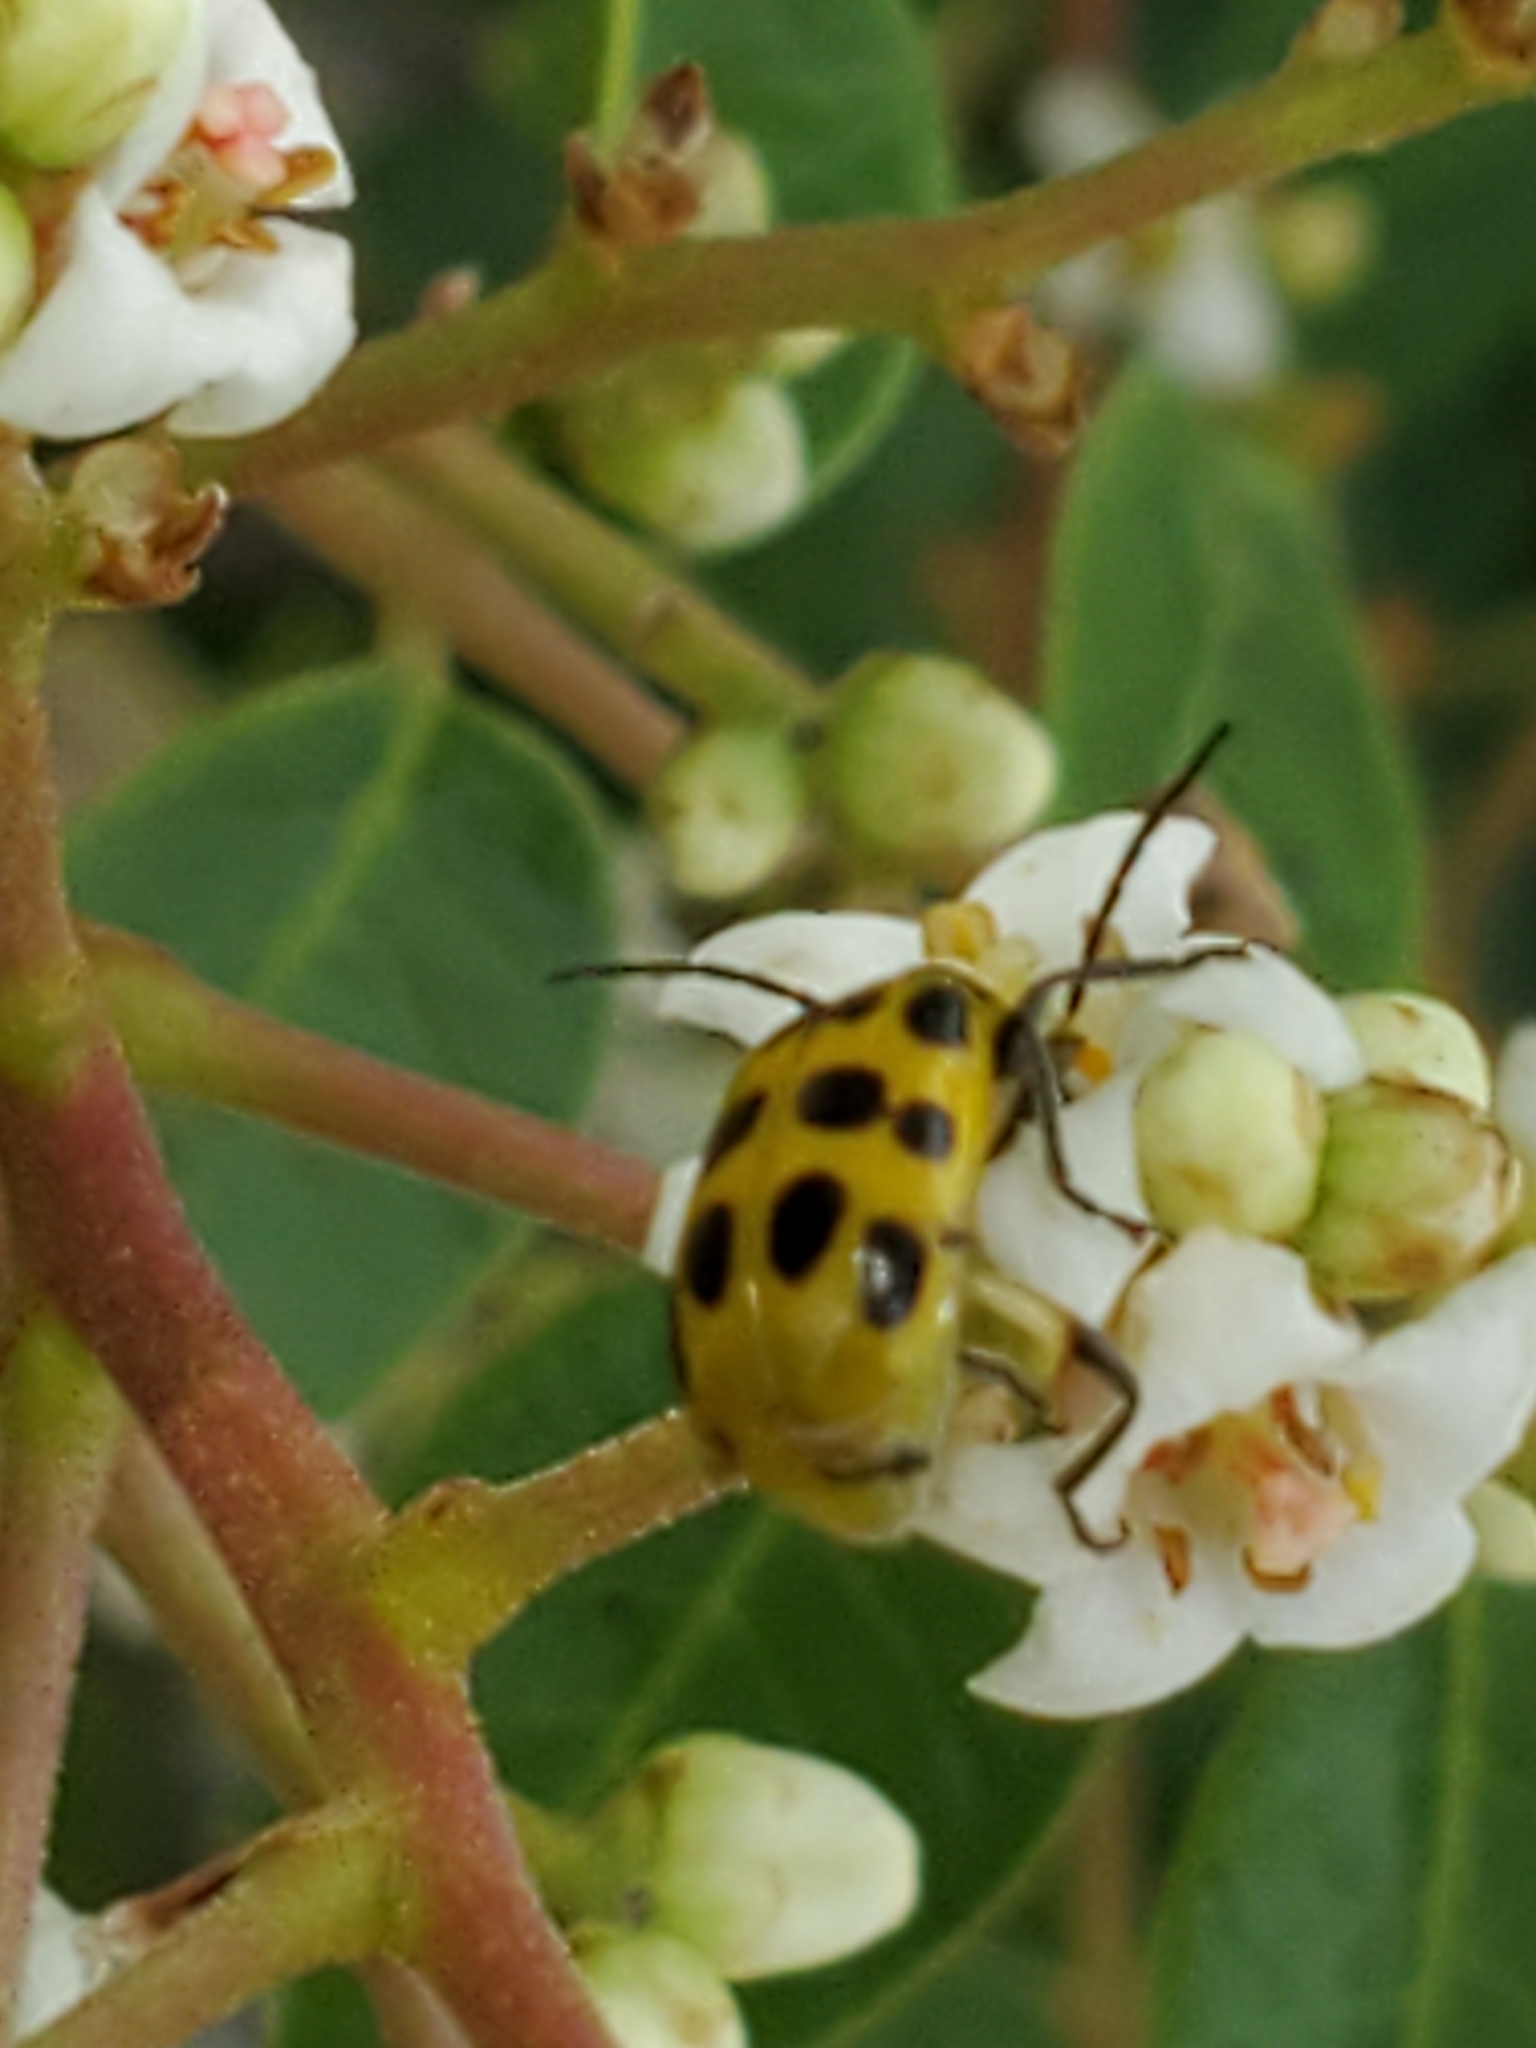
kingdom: Animalia
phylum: Arthropoda
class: Insecta
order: Coleoptera
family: Chrysomelidae
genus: Diabrotica
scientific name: Diabrotica undecimpunctata
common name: Spotted cucumber beetle
